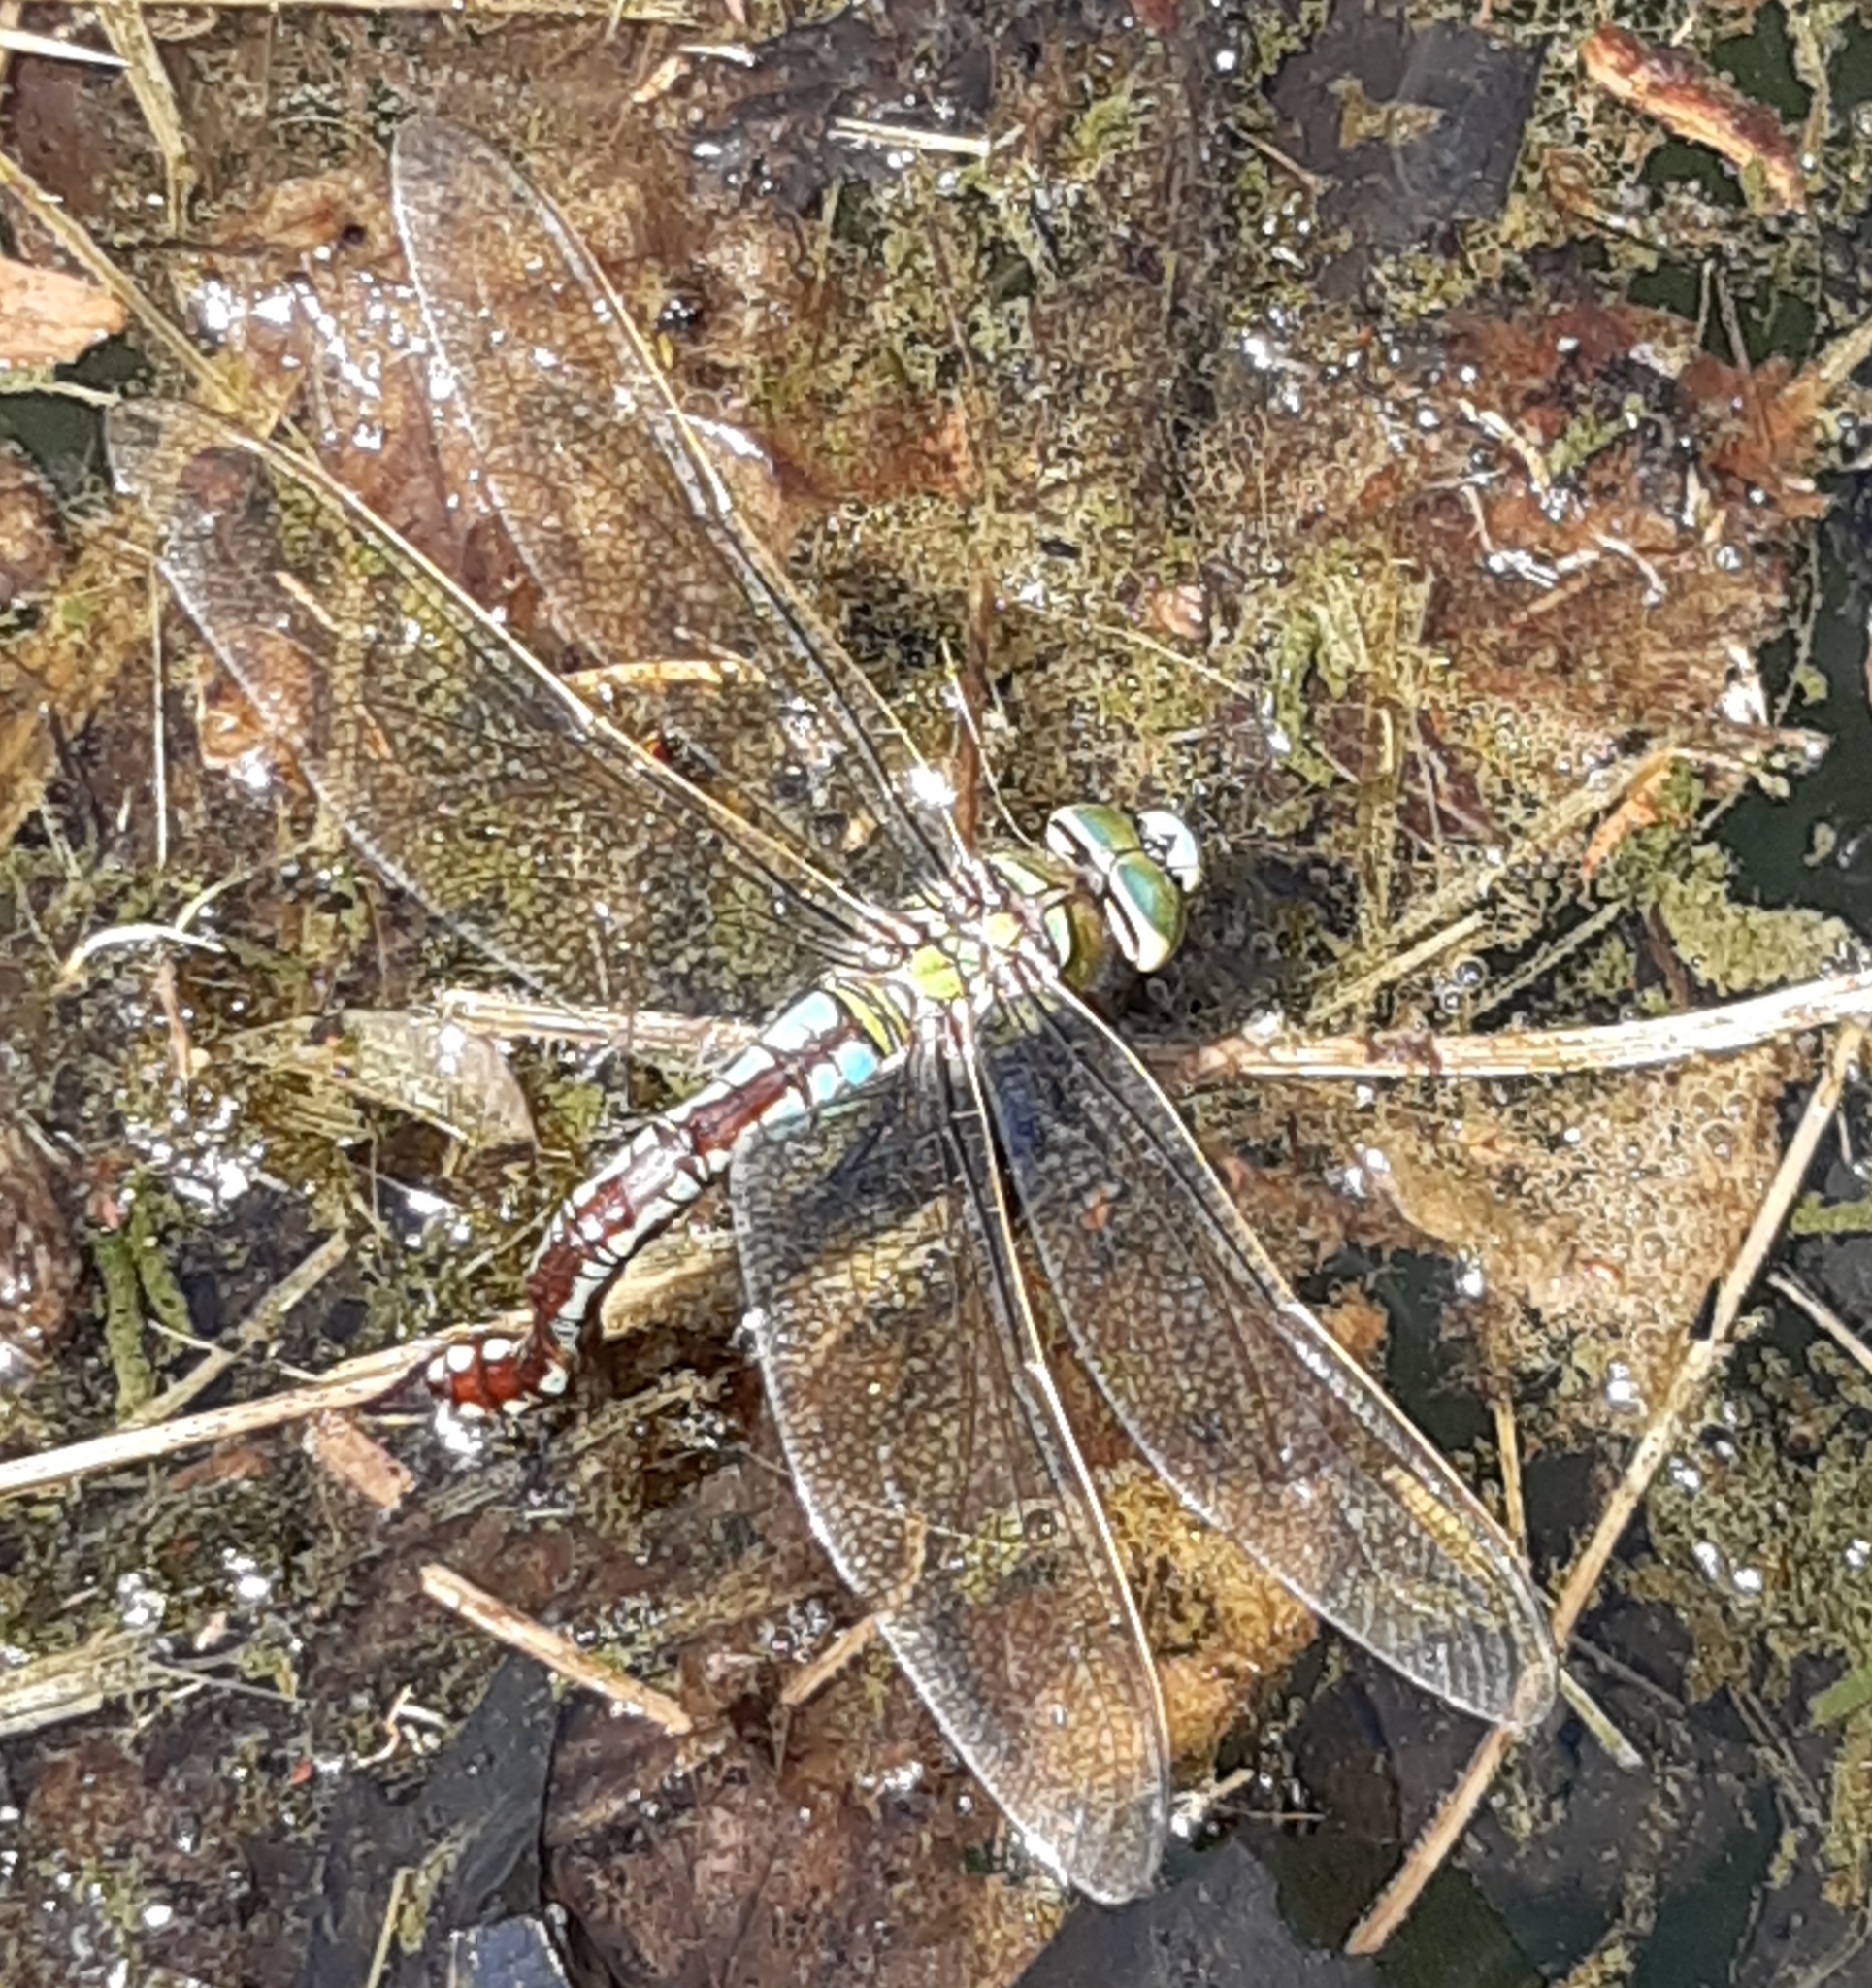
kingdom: Animalia
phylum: Arthropoda
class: Insecta
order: Odonata
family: Aeshnidae
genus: Anax
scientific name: Anax imperator
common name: Emperor dragonfly
